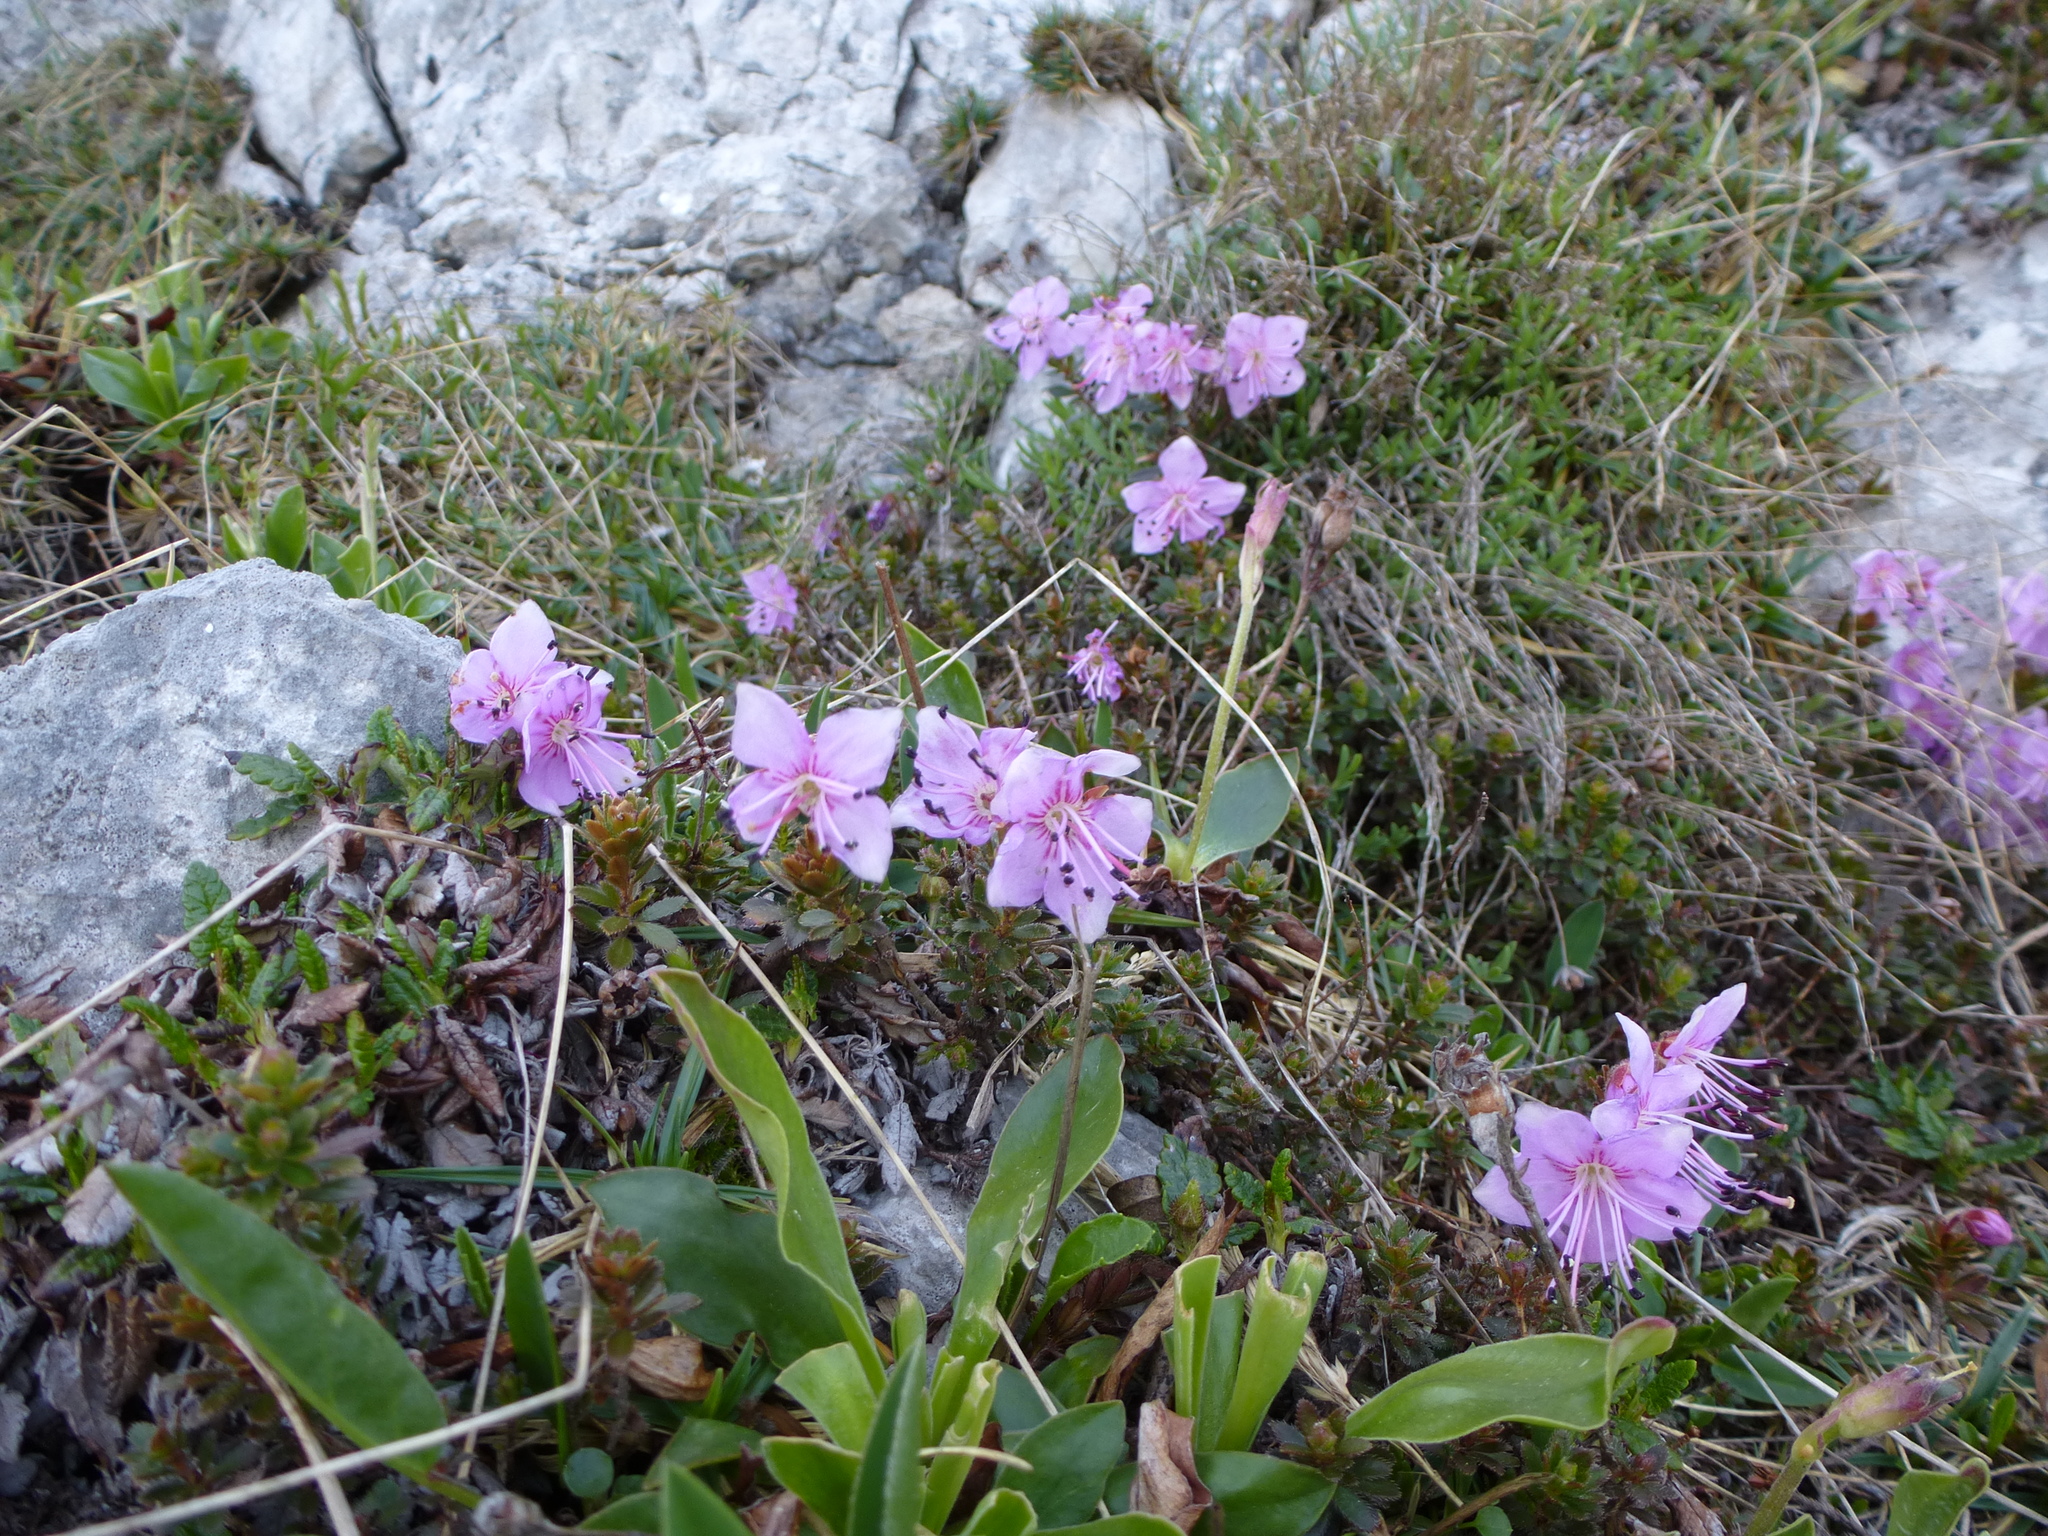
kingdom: Plantae
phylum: Tracheophyta
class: Magnoliopsida
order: Ericales
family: Ericaceae
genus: Rhodothamnus
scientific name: Rhodothamnus chamaecistus
